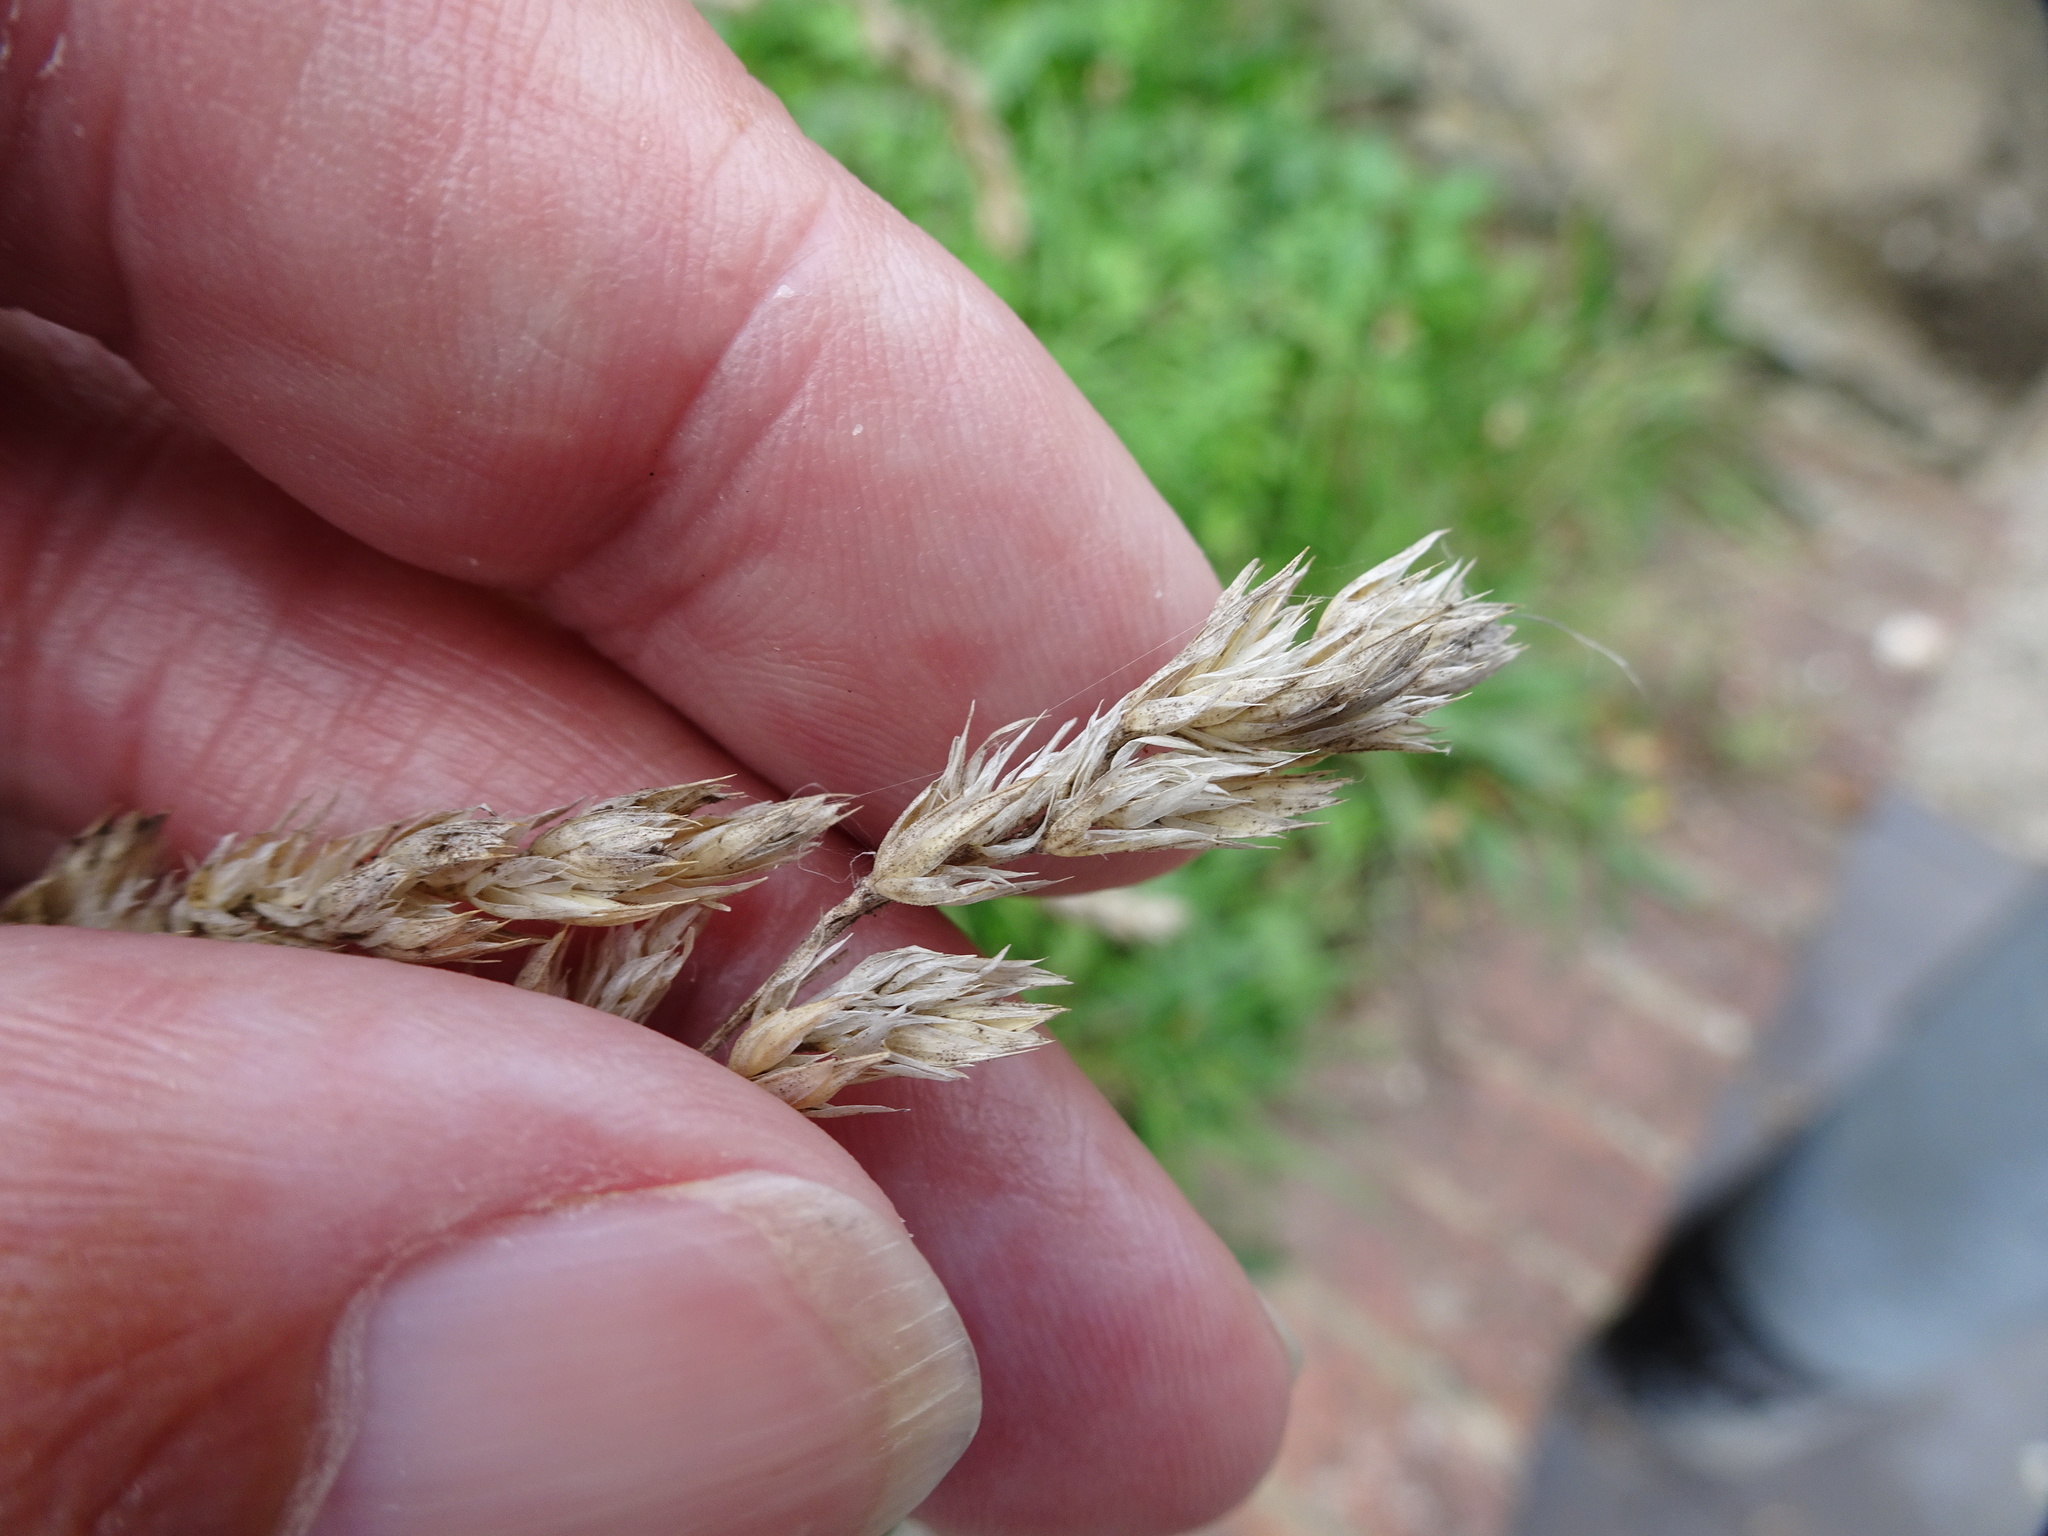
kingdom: Plantae
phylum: Tracheophyta
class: Liliopsida
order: Poales
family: Poaceae
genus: Dactylis
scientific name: Dactylis glomerata
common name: Orchardgrass
